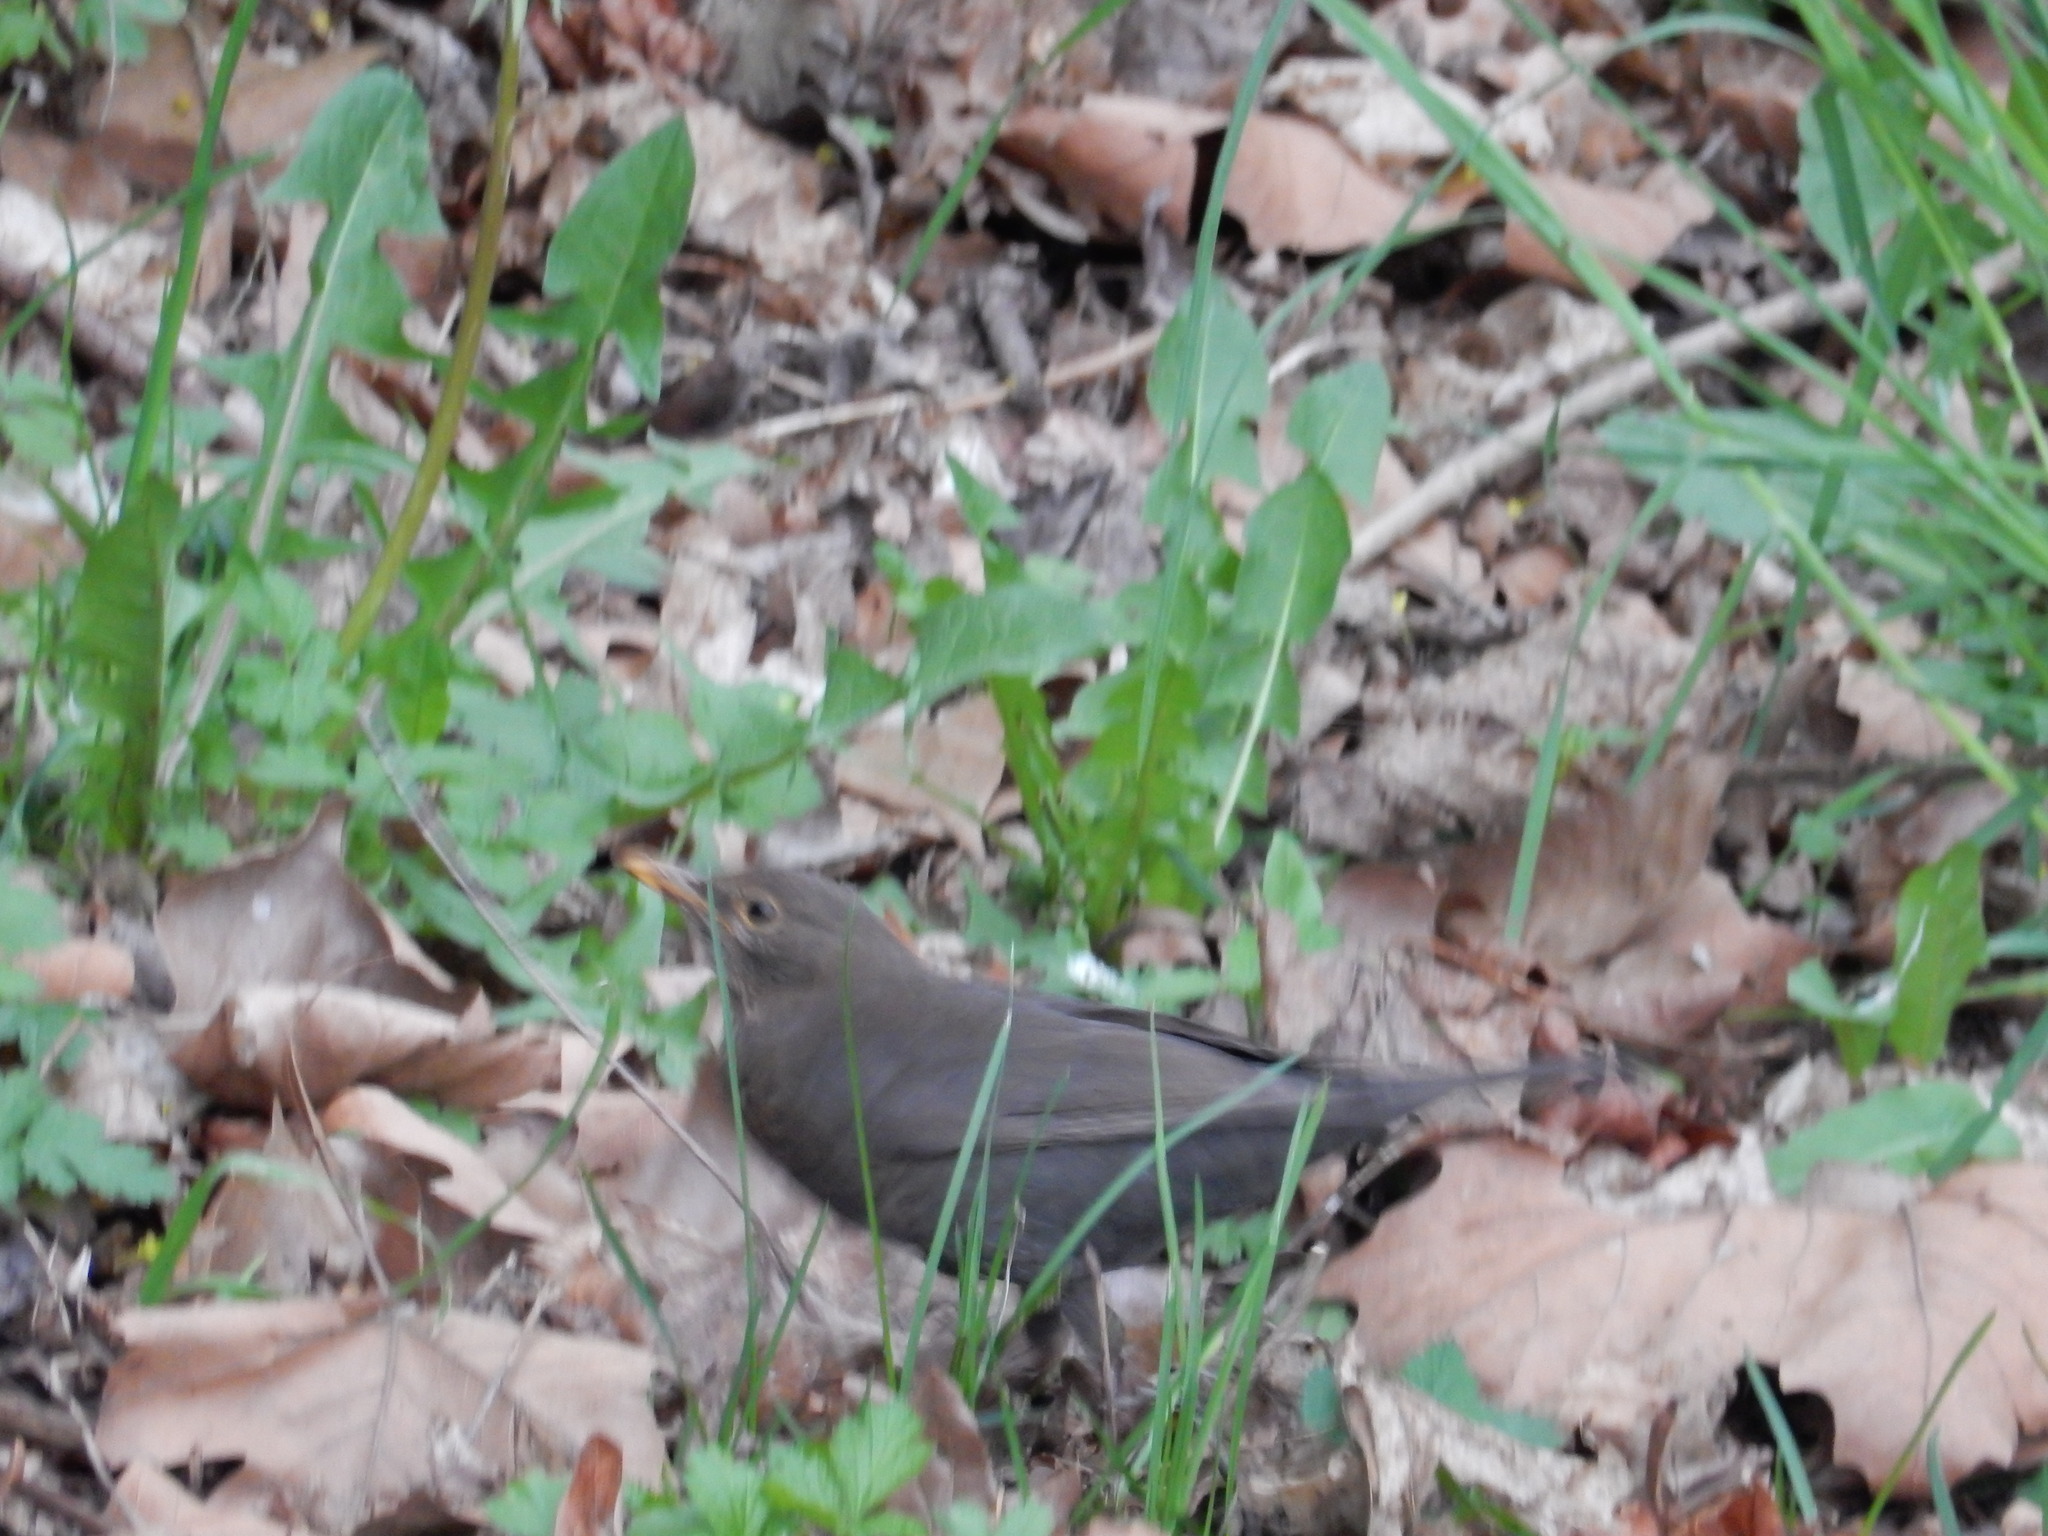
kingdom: Animalia
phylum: Chordata
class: Aves
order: Passeriformes
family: Turdidae
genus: Turdus
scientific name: Turdus merula
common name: Common blackbird
